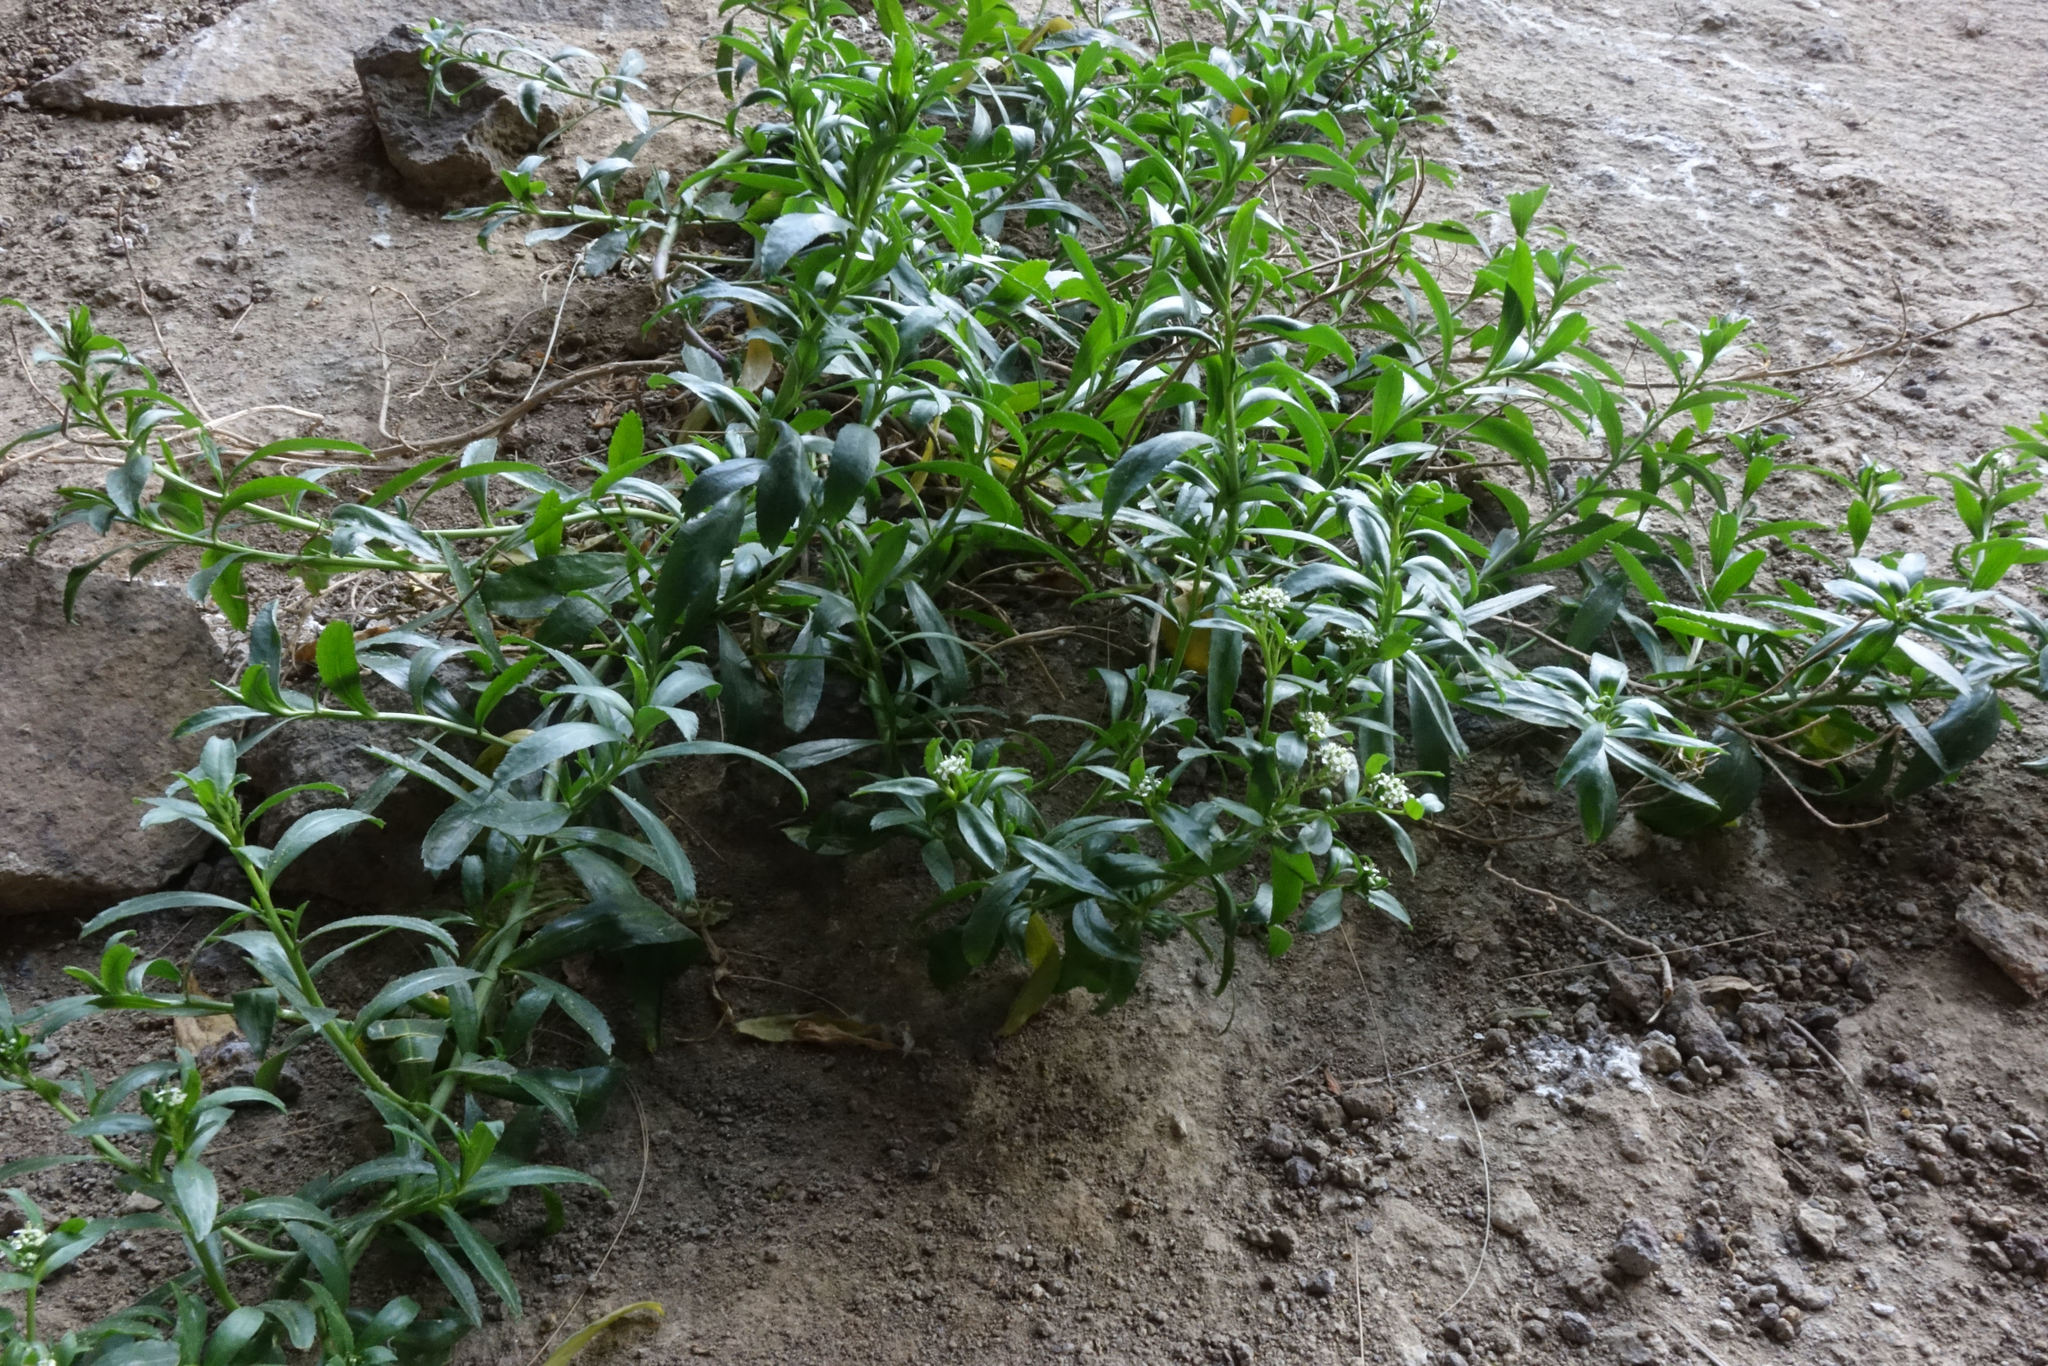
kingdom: Plantae
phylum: Tracheophyta
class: Magnoliopsida
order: Brassicales
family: Brassicaceae
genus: Lepidium
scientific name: Lepidium juvencum
